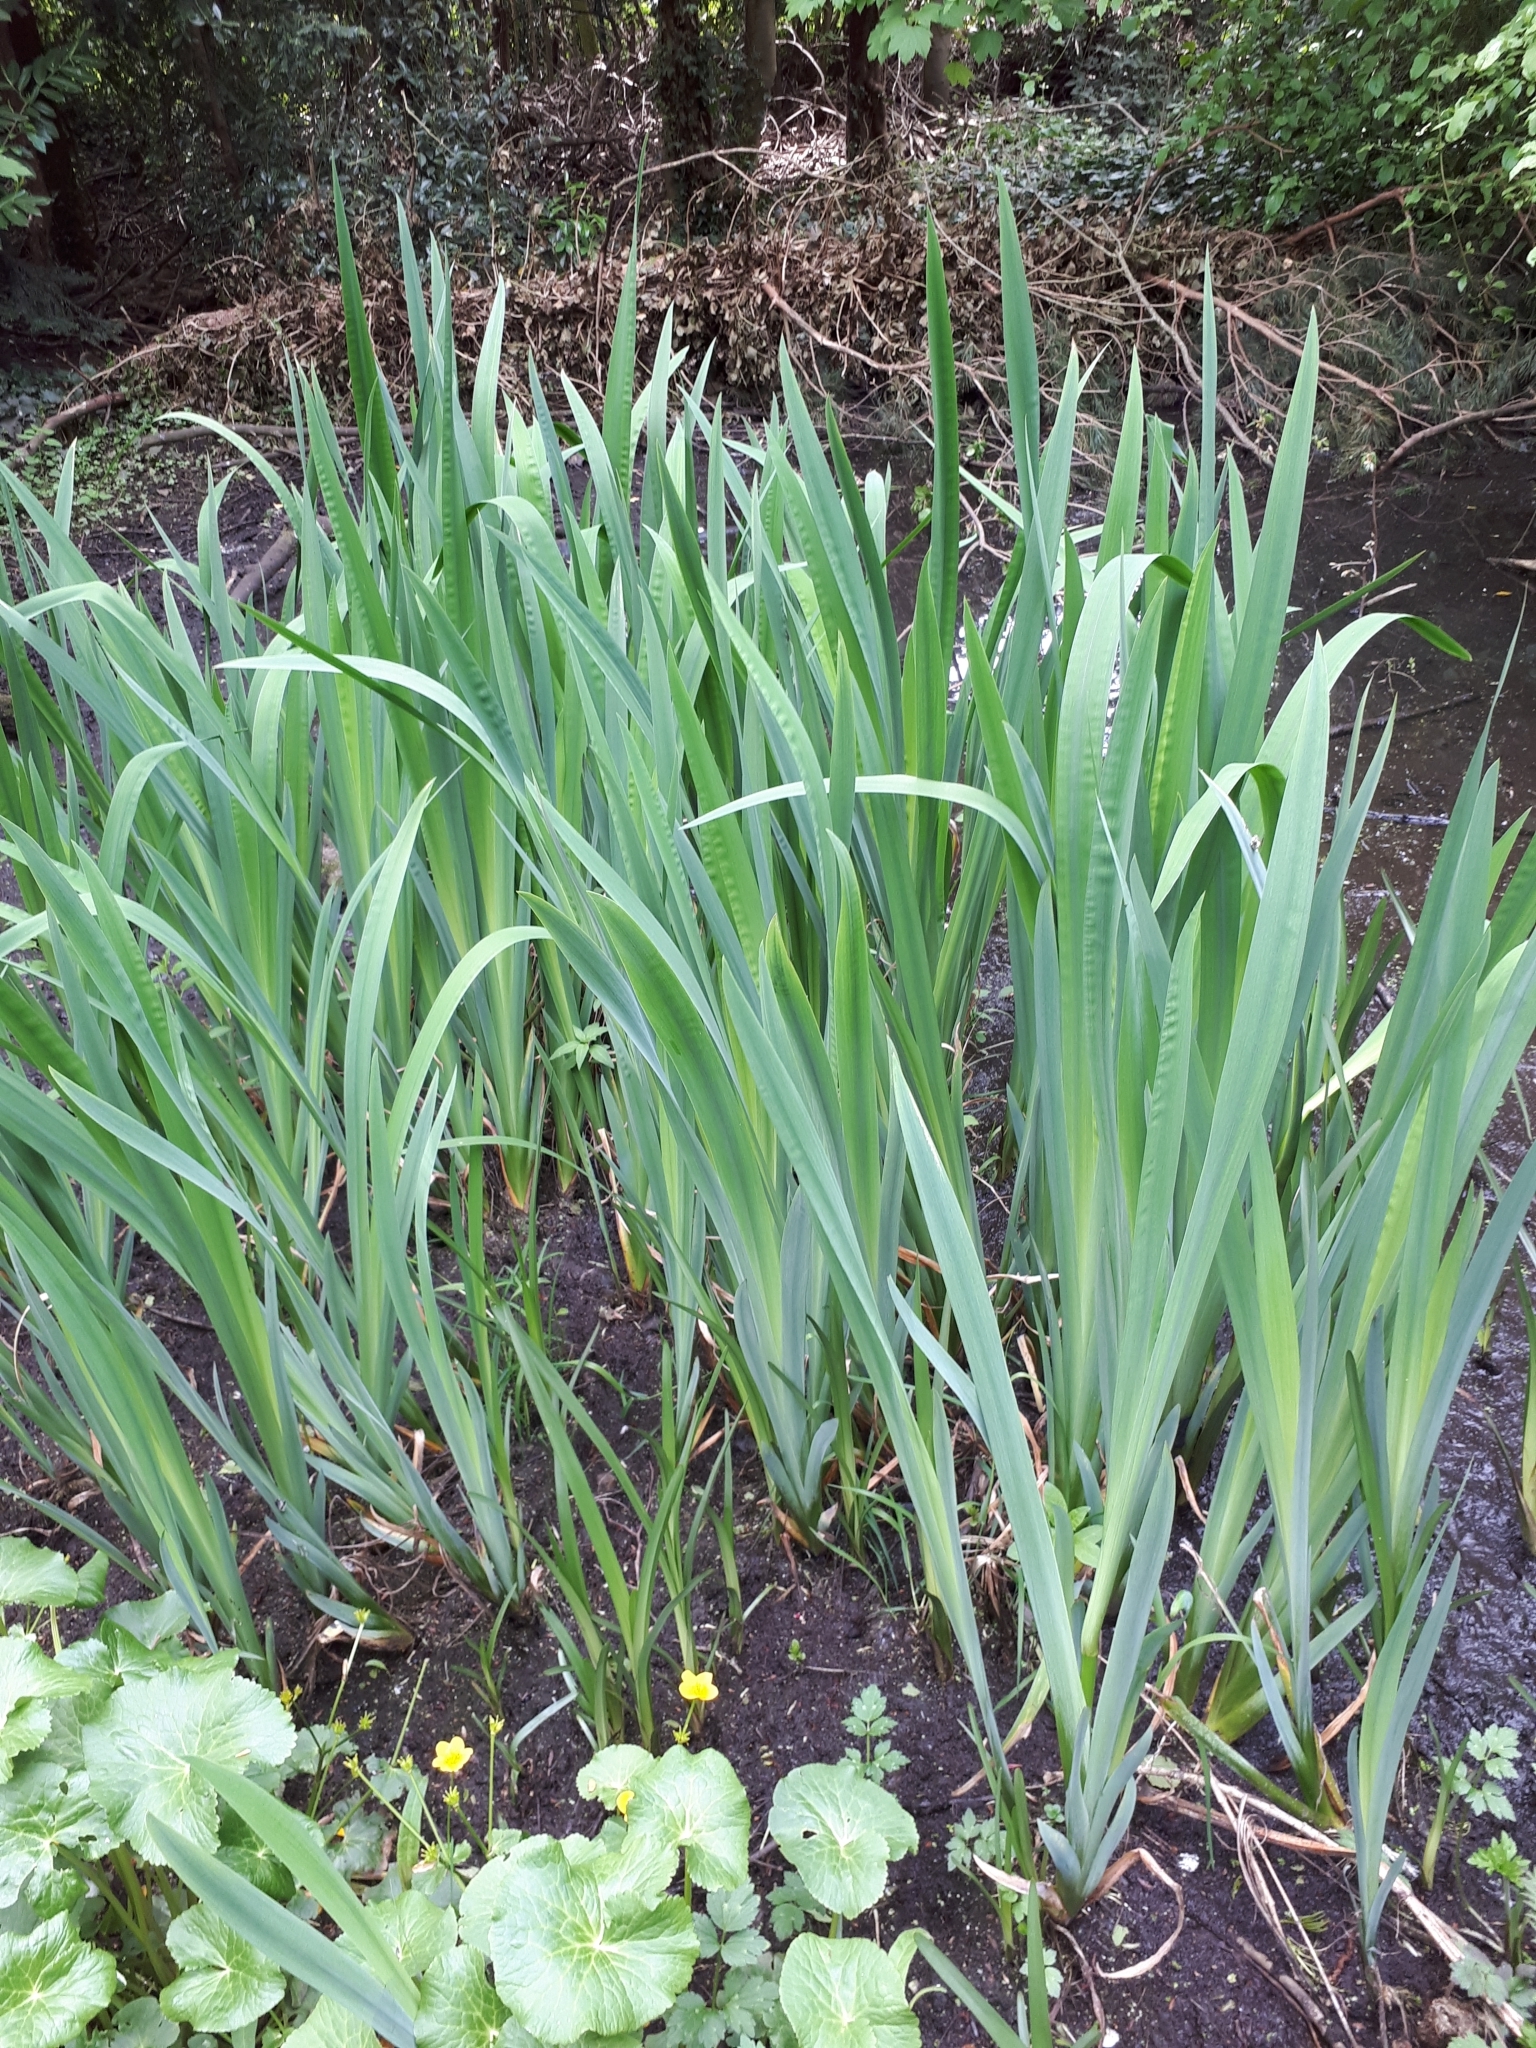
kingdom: Plantae
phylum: Tracheophyta
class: Liliopsida
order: Asparagales
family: Iridaceae
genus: Iris
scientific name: Iris pseudacorus
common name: Yellow flag
